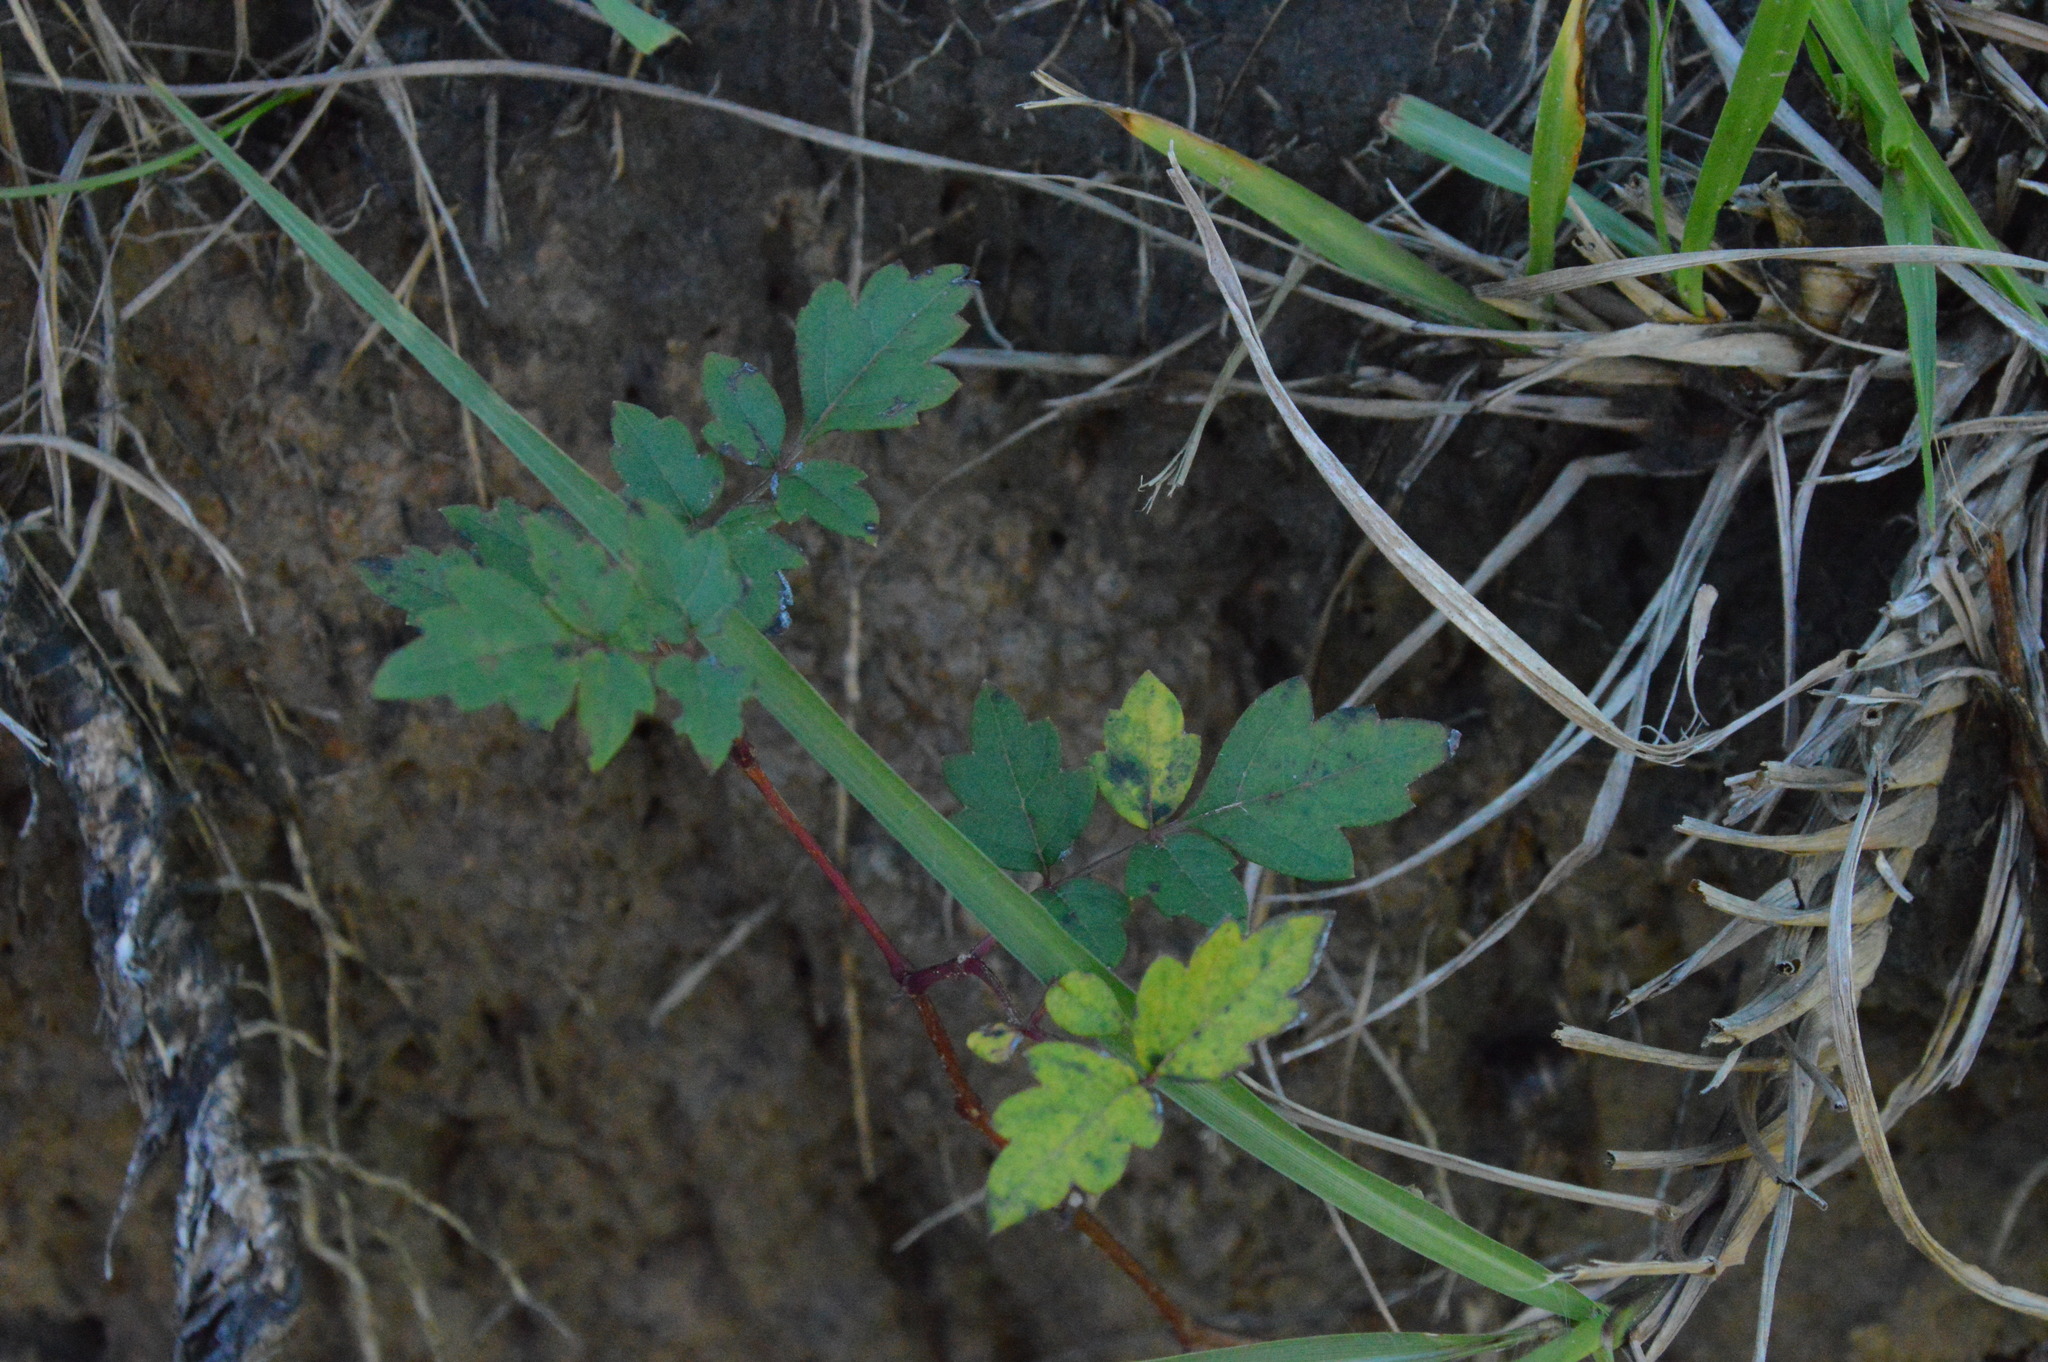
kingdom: Plantae
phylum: Tracheophyta
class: Magnoliopsida
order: Vitales
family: Vitaceae
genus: Nekemias
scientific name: Nekemias arborea
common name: Peppervine
